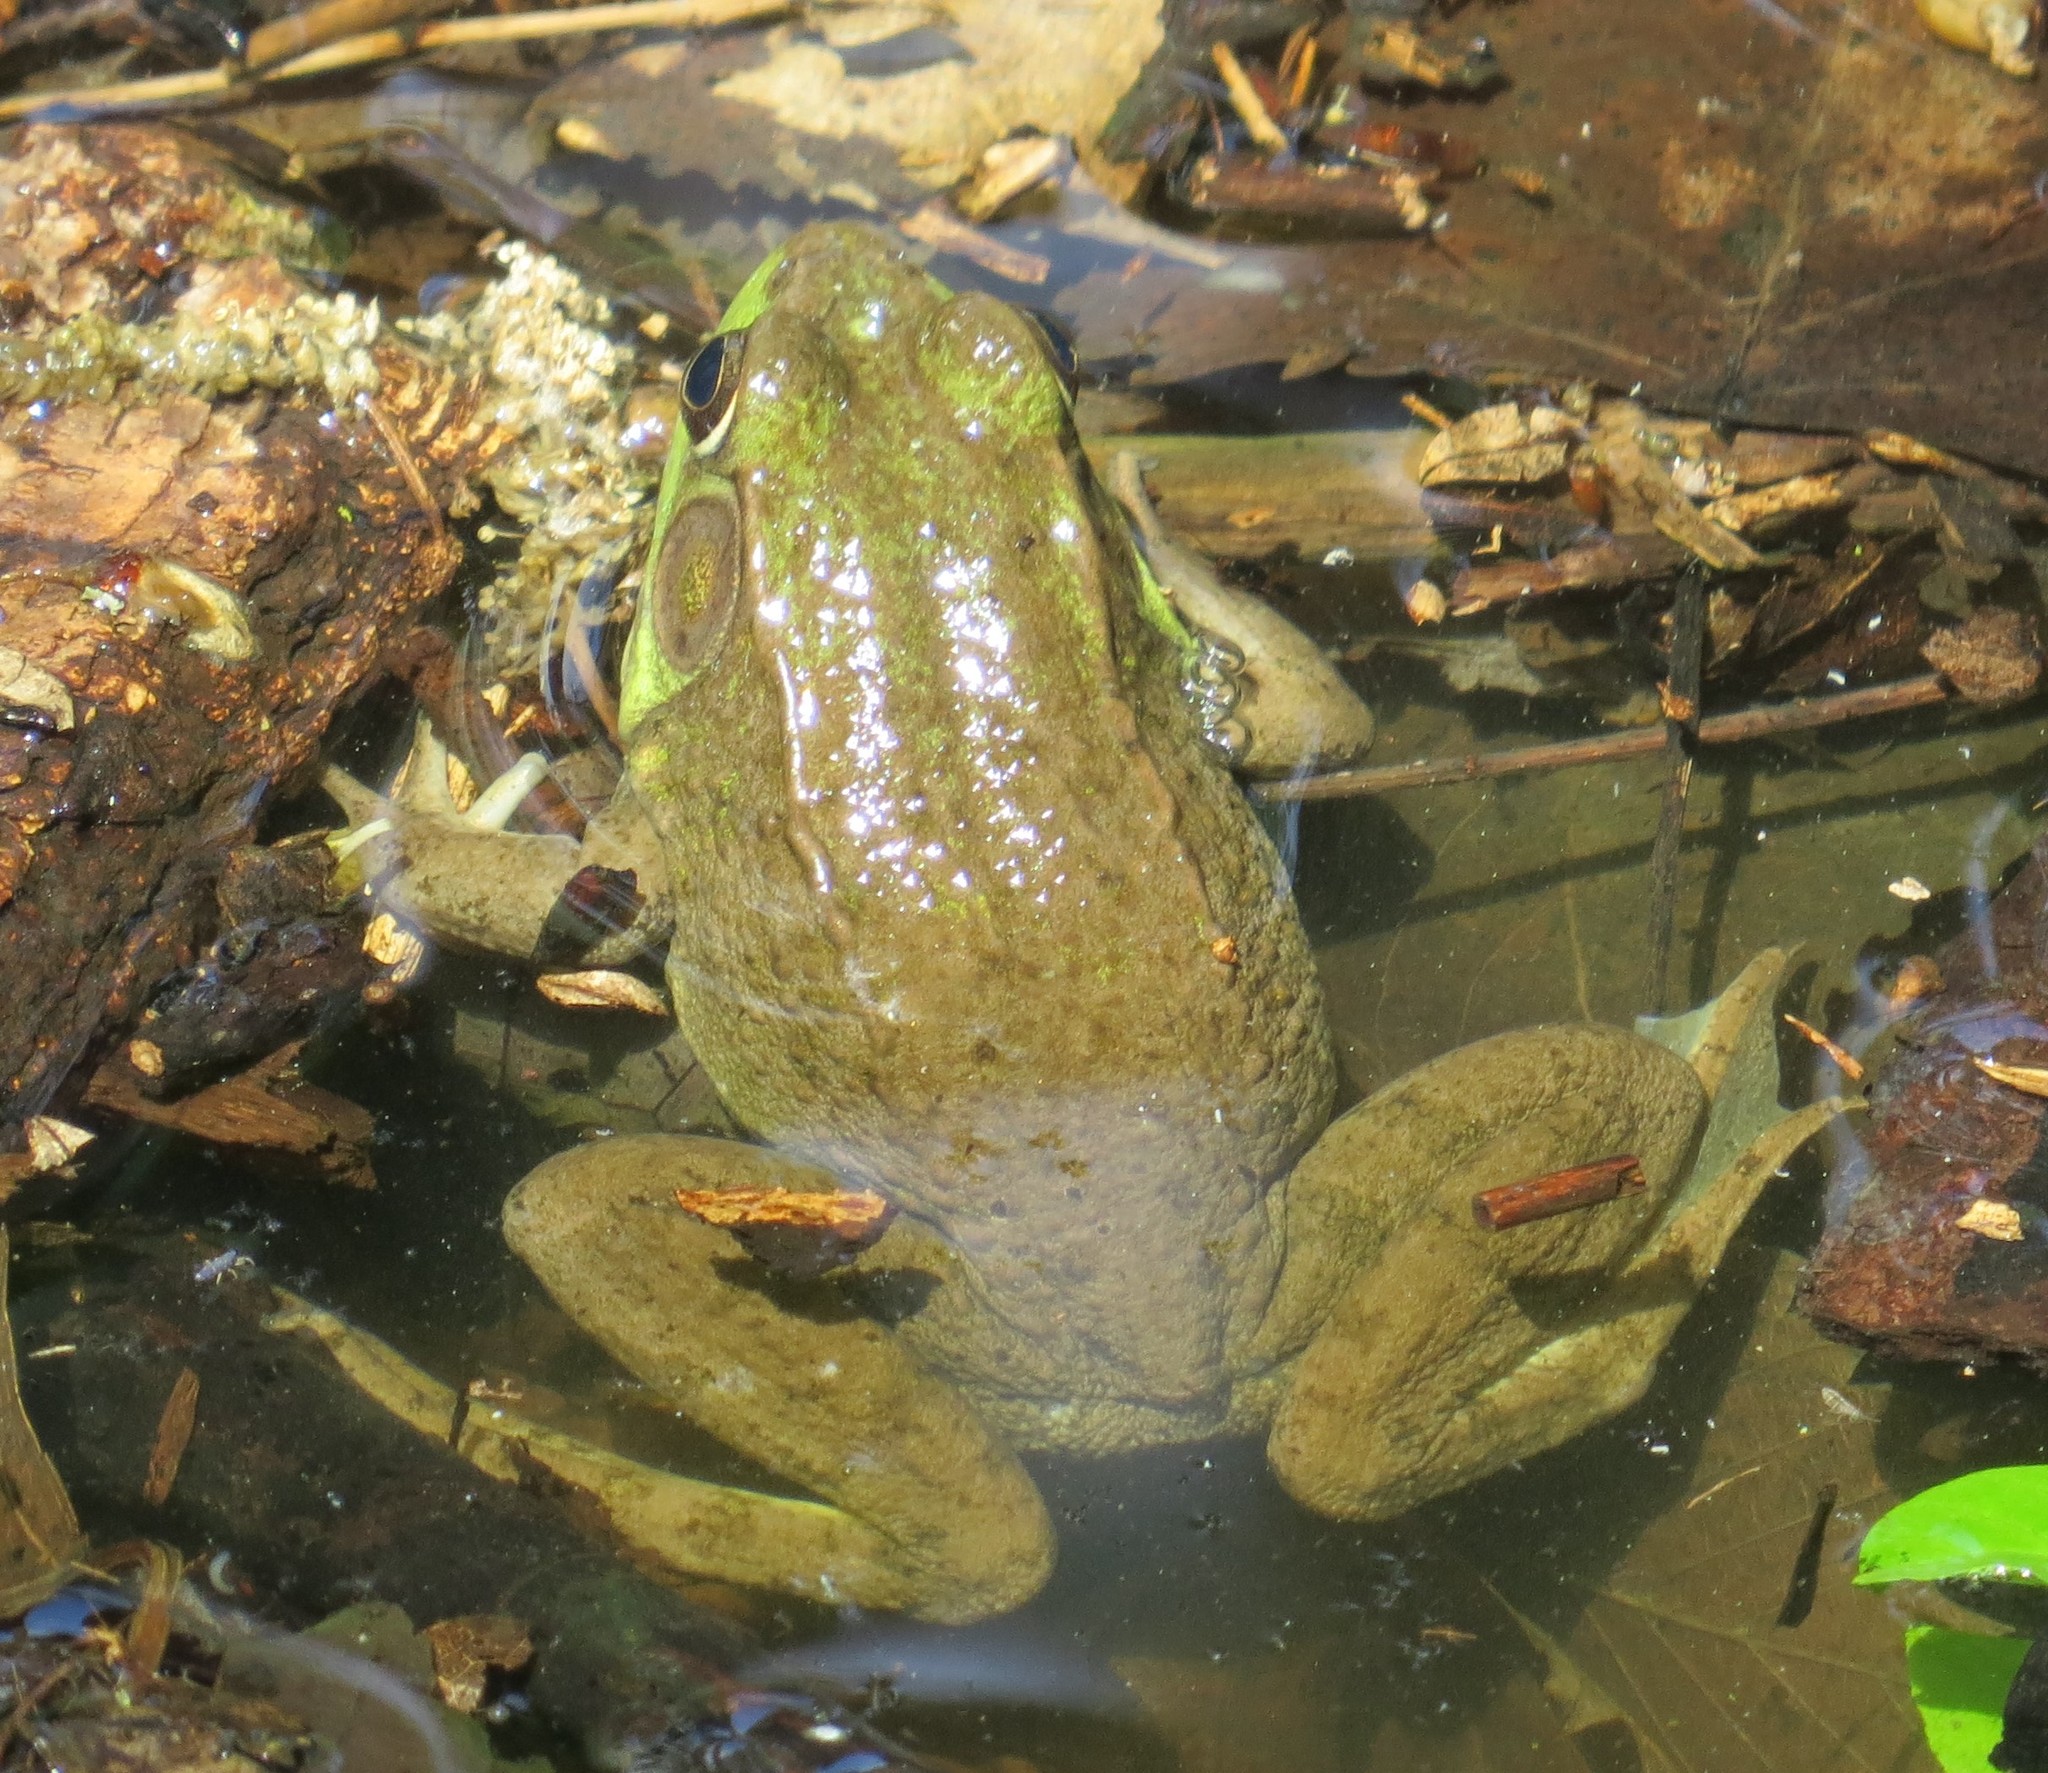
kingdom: Animalia
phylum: Chordata
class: Amphibia
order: Anura
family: Ranidae
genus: Lithobates
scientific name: Lithobates clamitans
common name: Green frog
